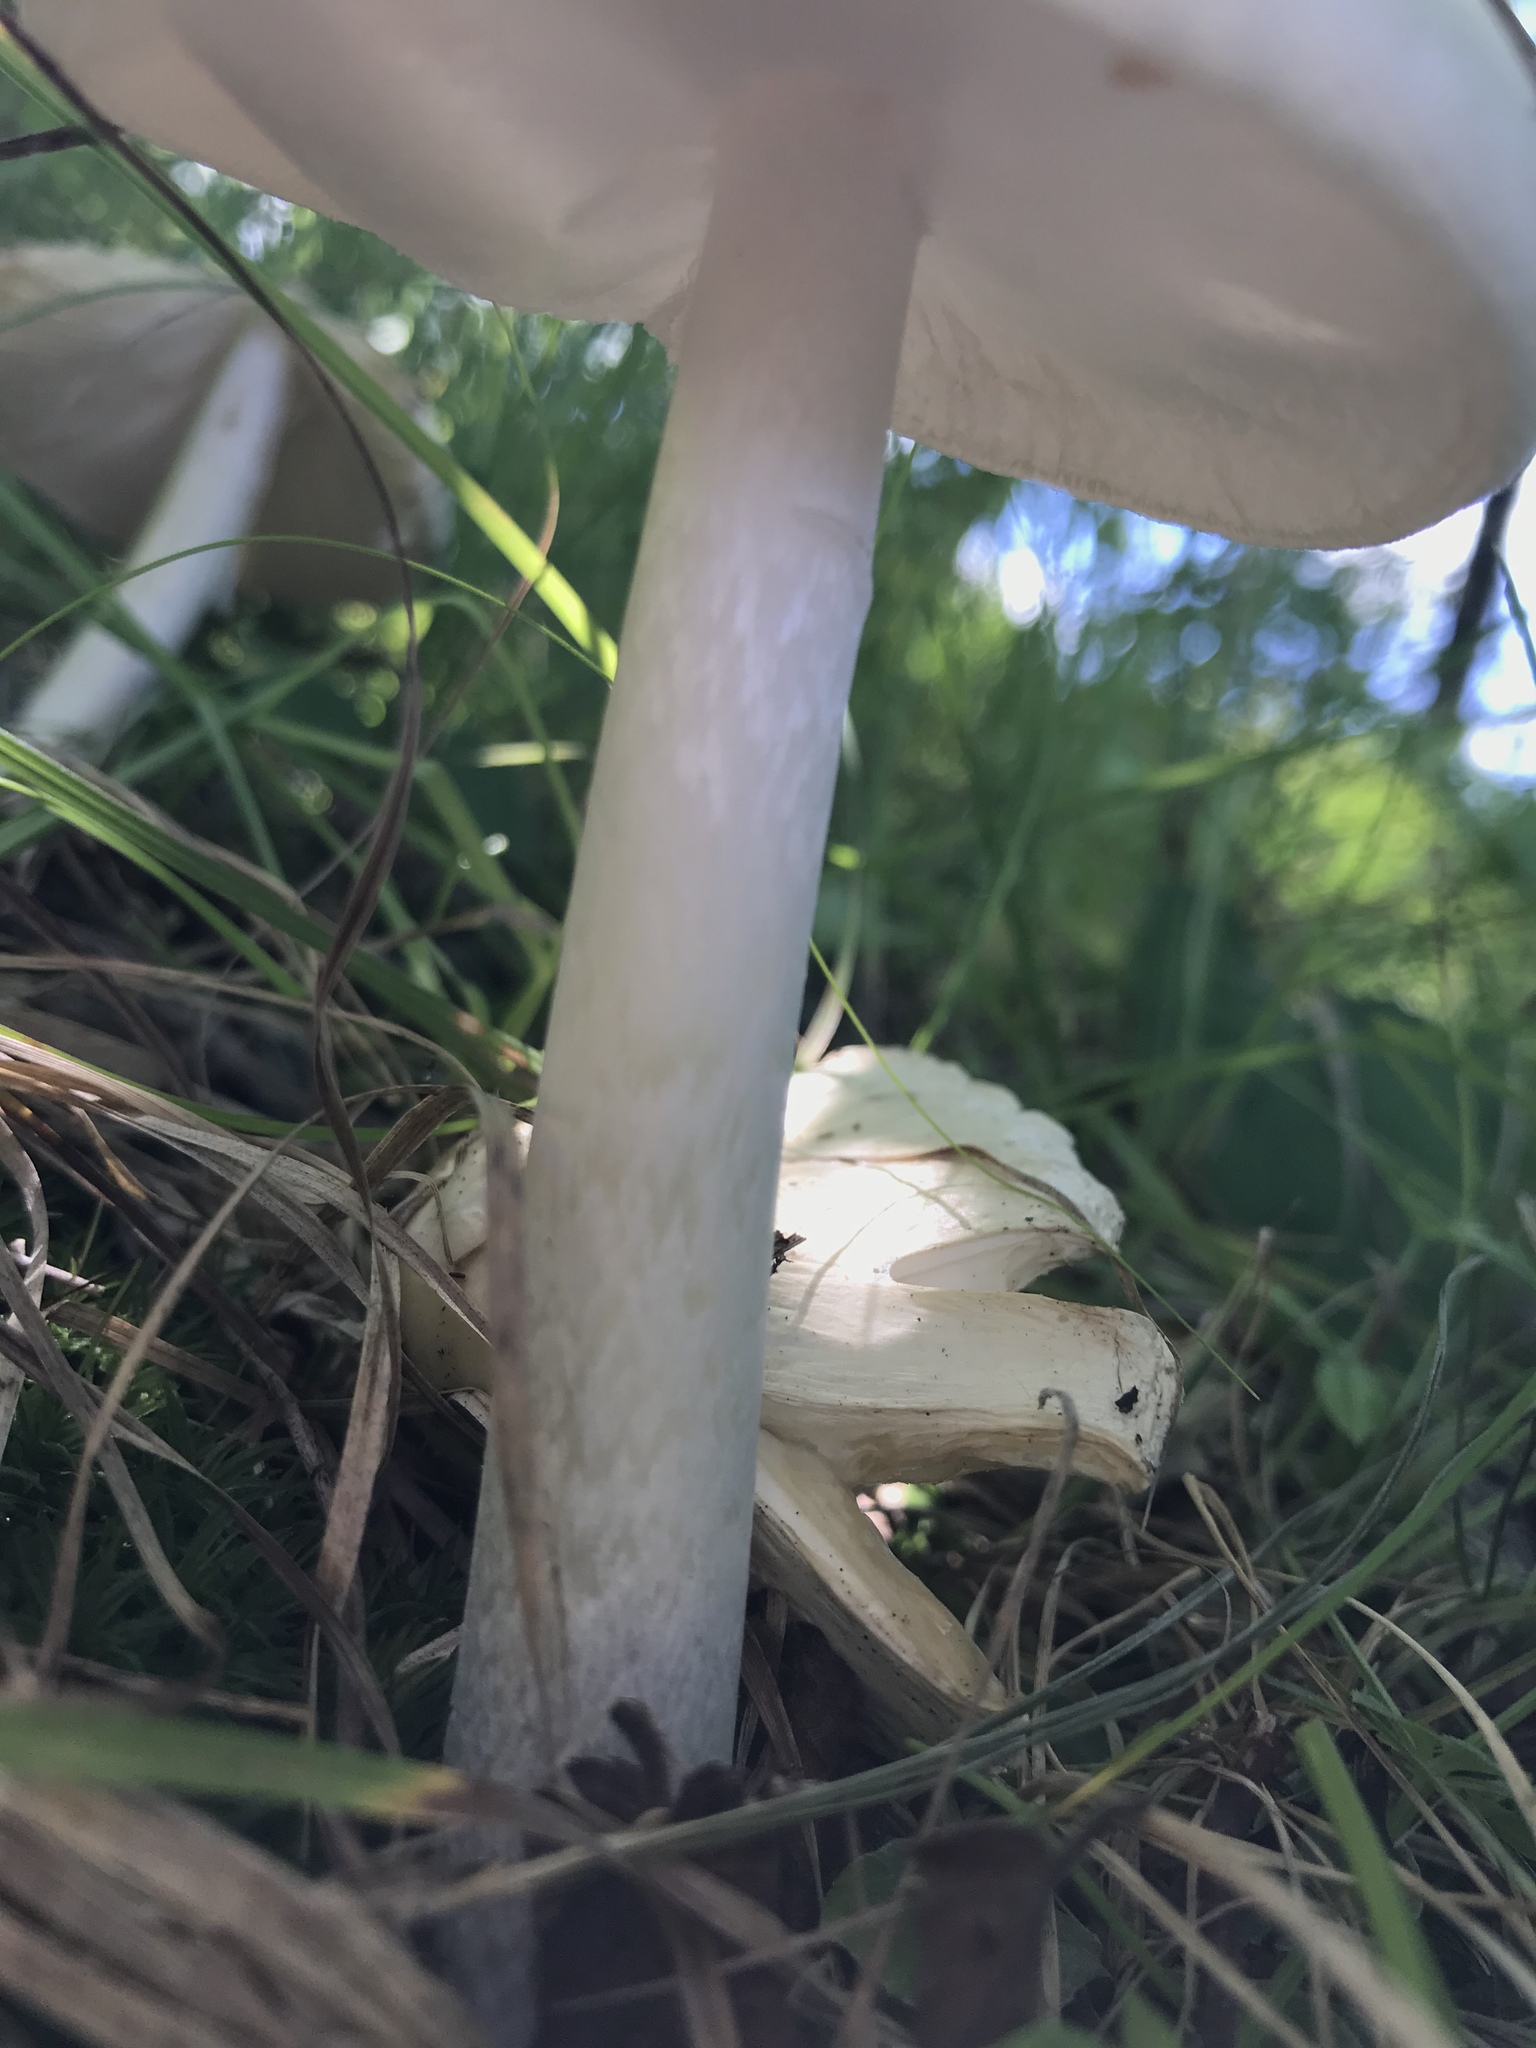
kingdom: Fungi
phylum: Basidiomycota
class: Agaricomycetes
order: Agaricales
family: Amanitaceae
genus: Amanita
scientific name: Amanita bisporigera
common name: Eastern north american destroying angel
